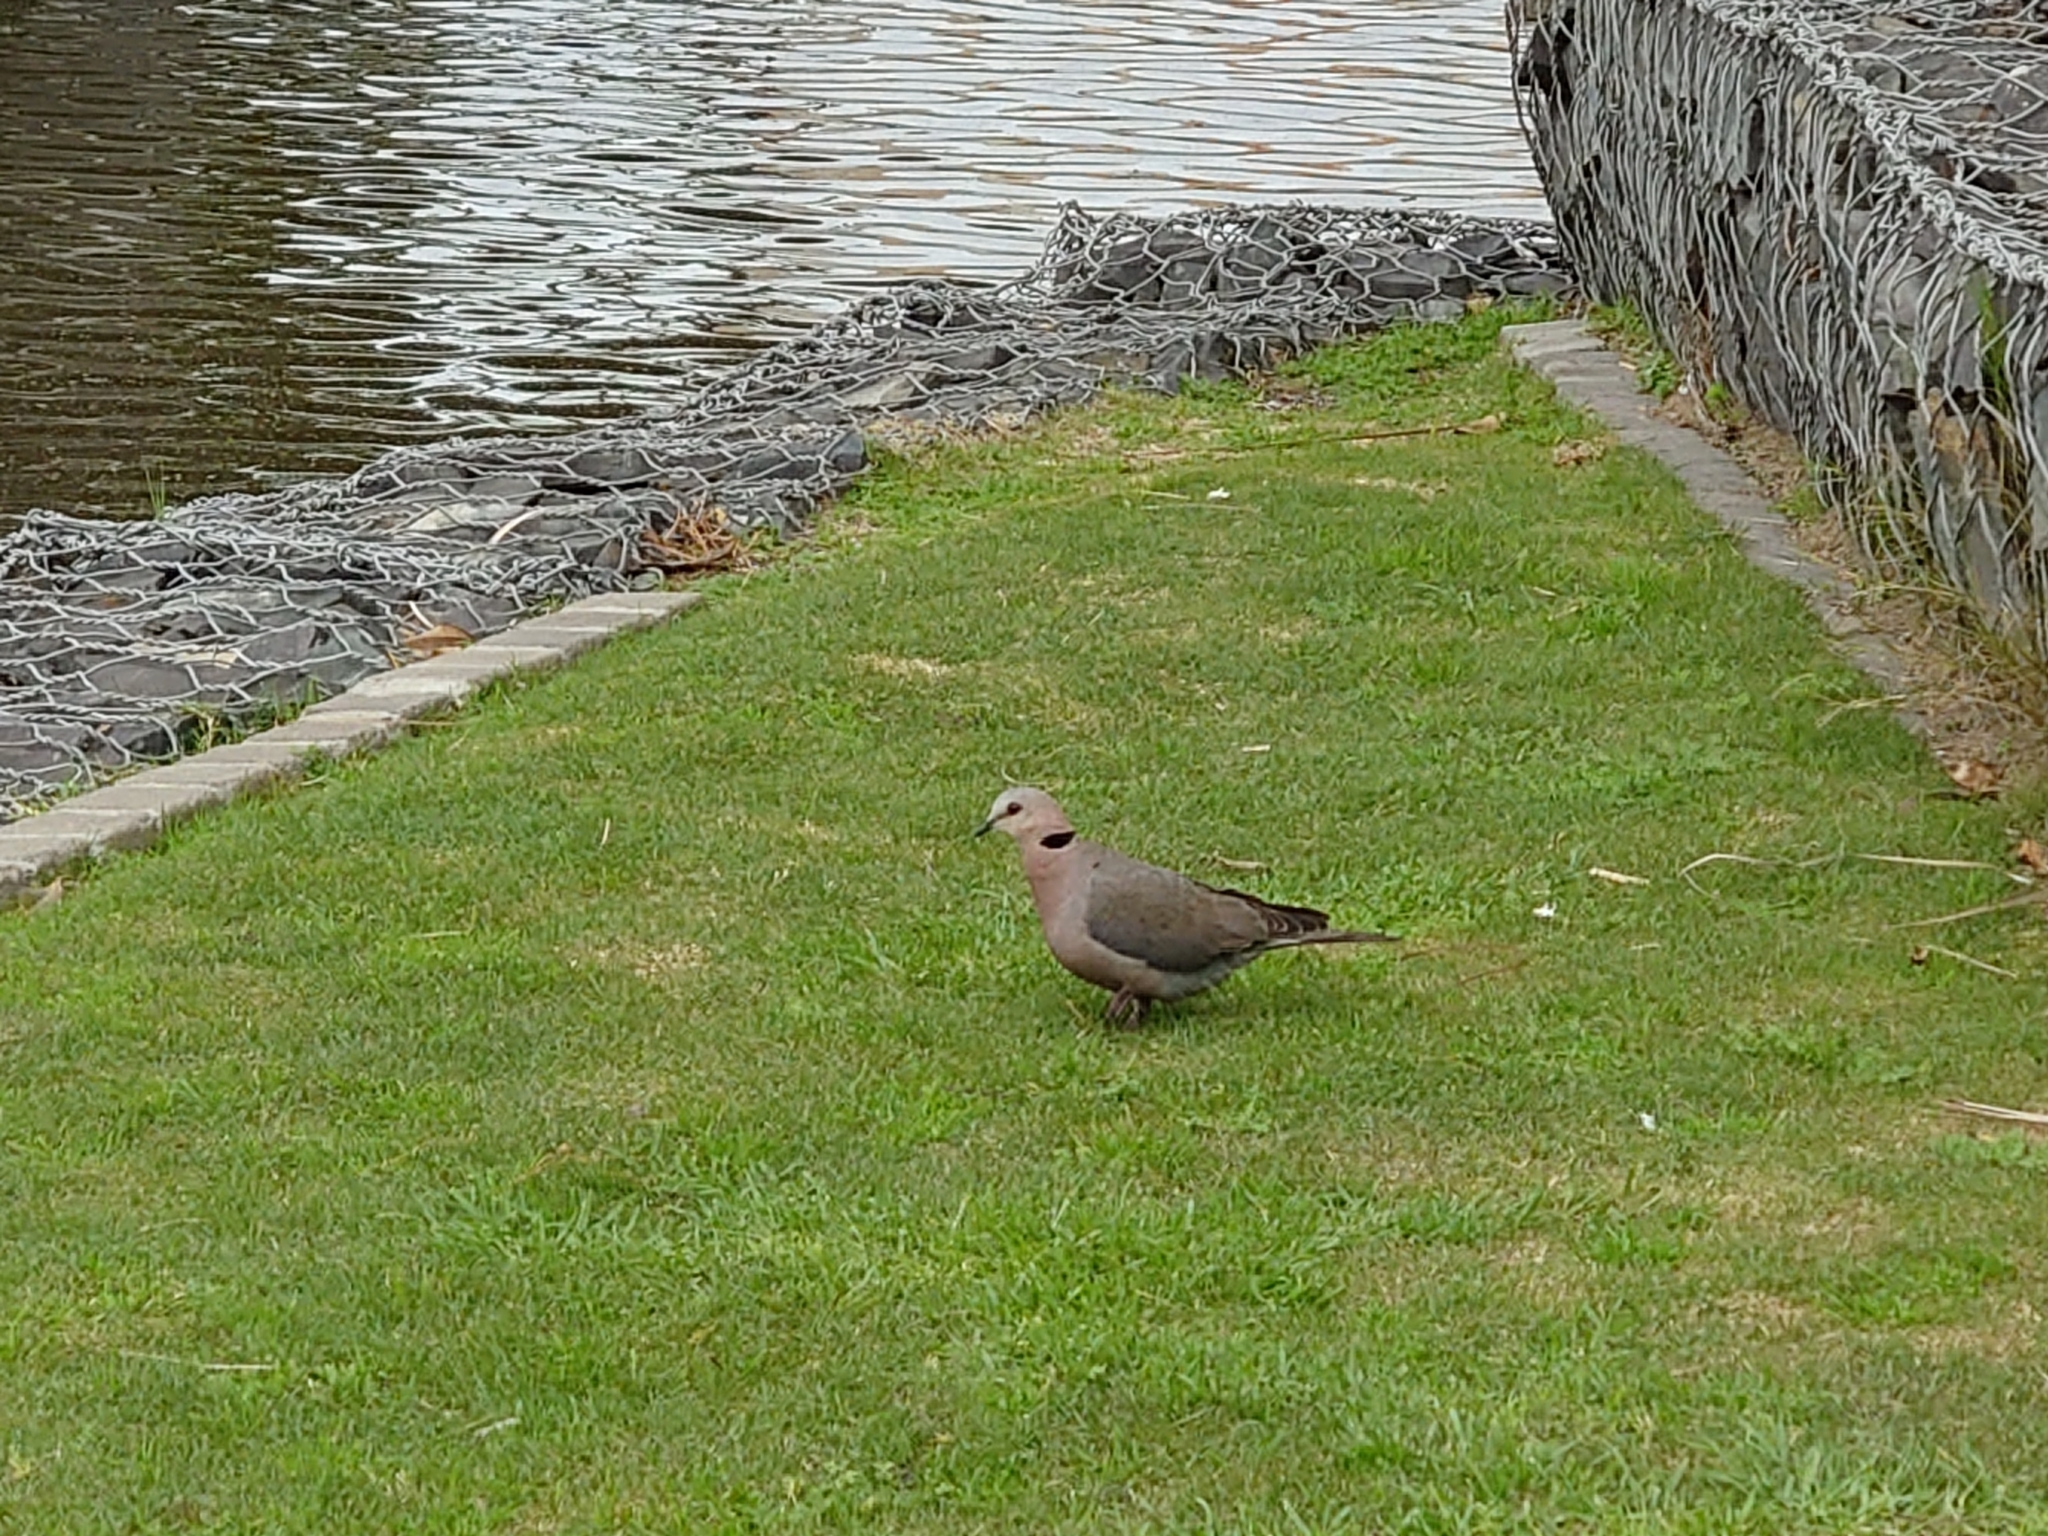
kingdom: Animalia
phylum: Chordata
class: Aves
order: Columbiformes
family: Columbidae
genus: Streptopelia
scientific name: Streptopelia semitorquata
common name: Red-eyed dove
